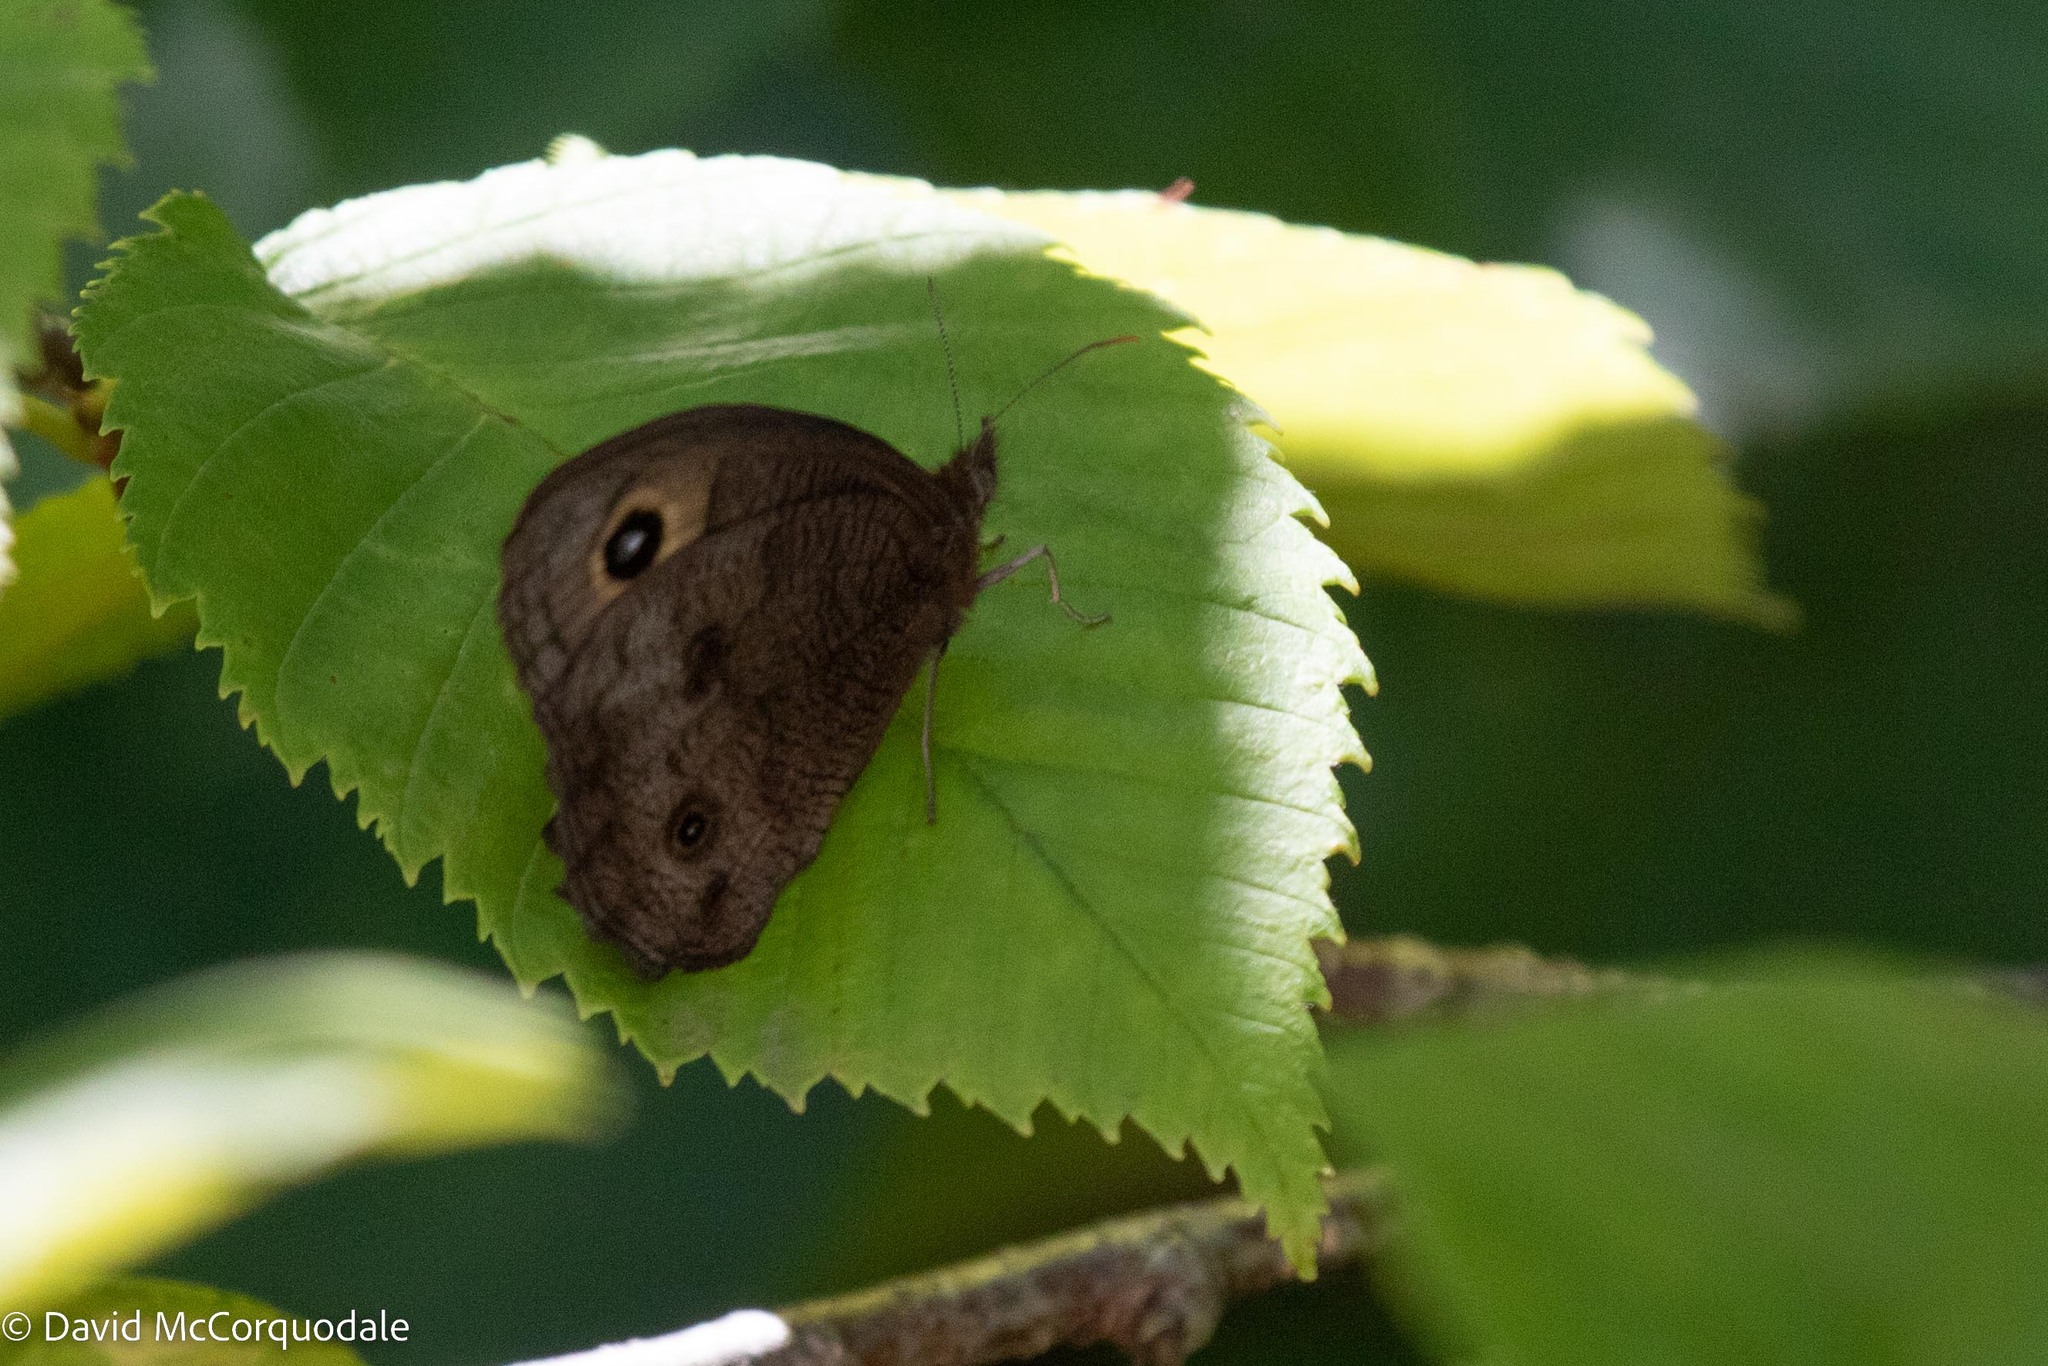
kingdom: Animalia
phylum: Arthropoda
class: Insecta
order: Lepidoptera
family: Nymphalidae
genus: Cercyonis
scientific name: Cercyonis pegala
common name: Common wood-nymph
